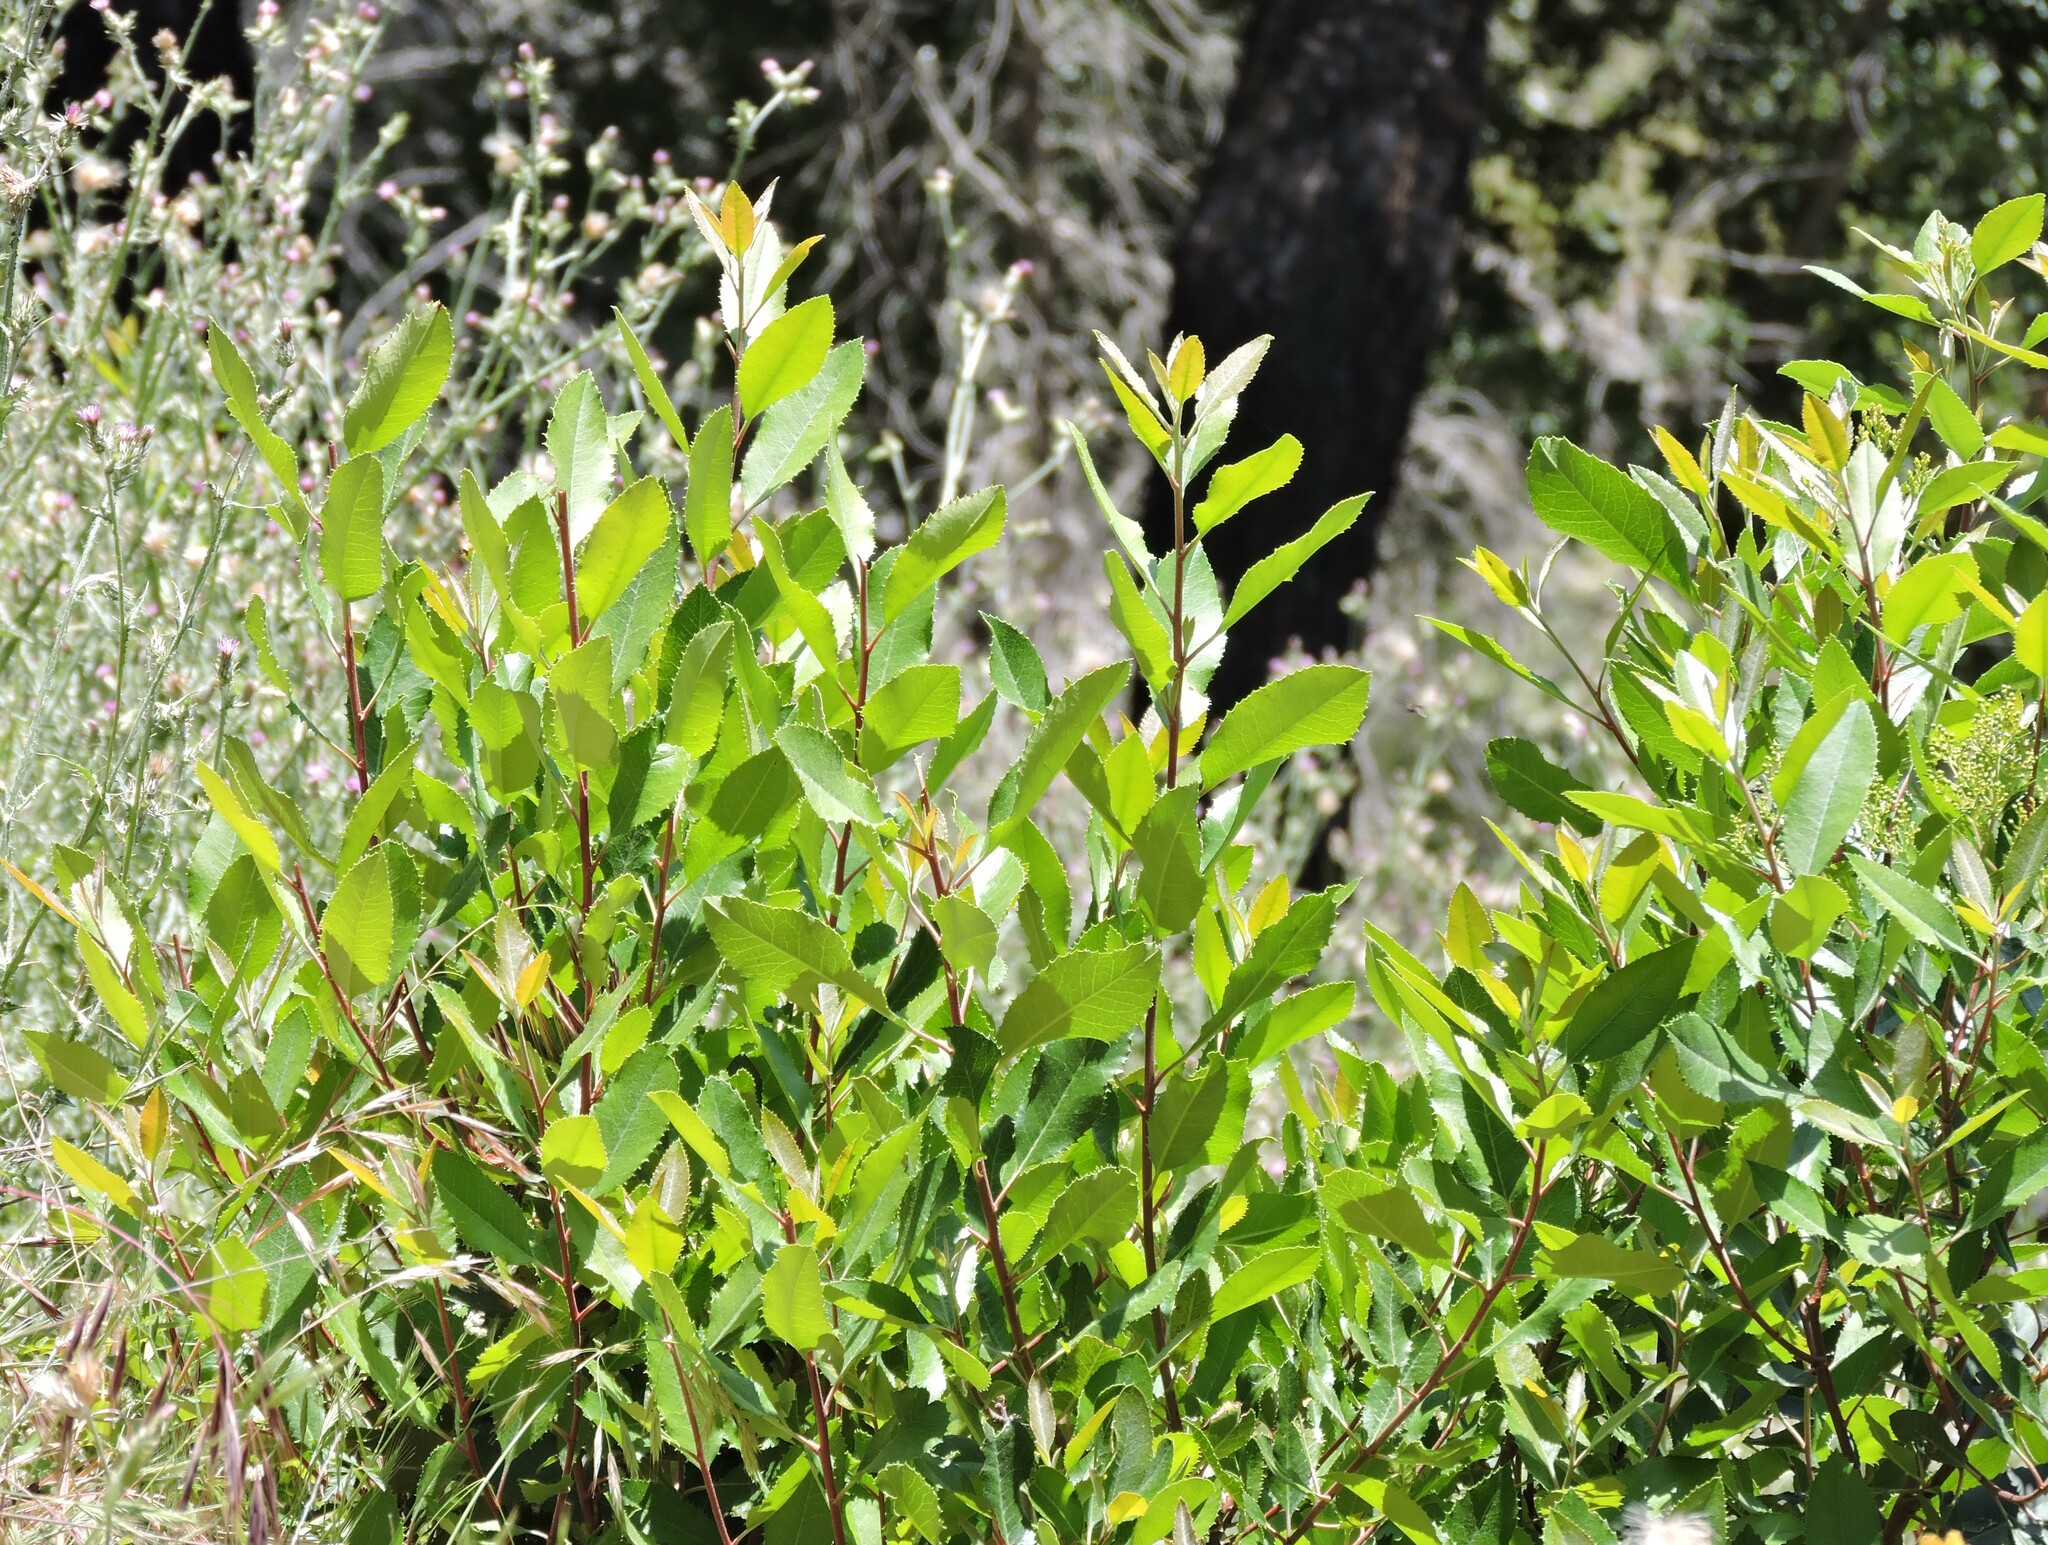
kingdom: Plantae
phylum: Tracheophyta
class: Magnoliopsida
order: Rosales
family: Rosaceae
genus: Heteromeles
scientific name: Heteromeles arbutifolia
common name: California-holly
